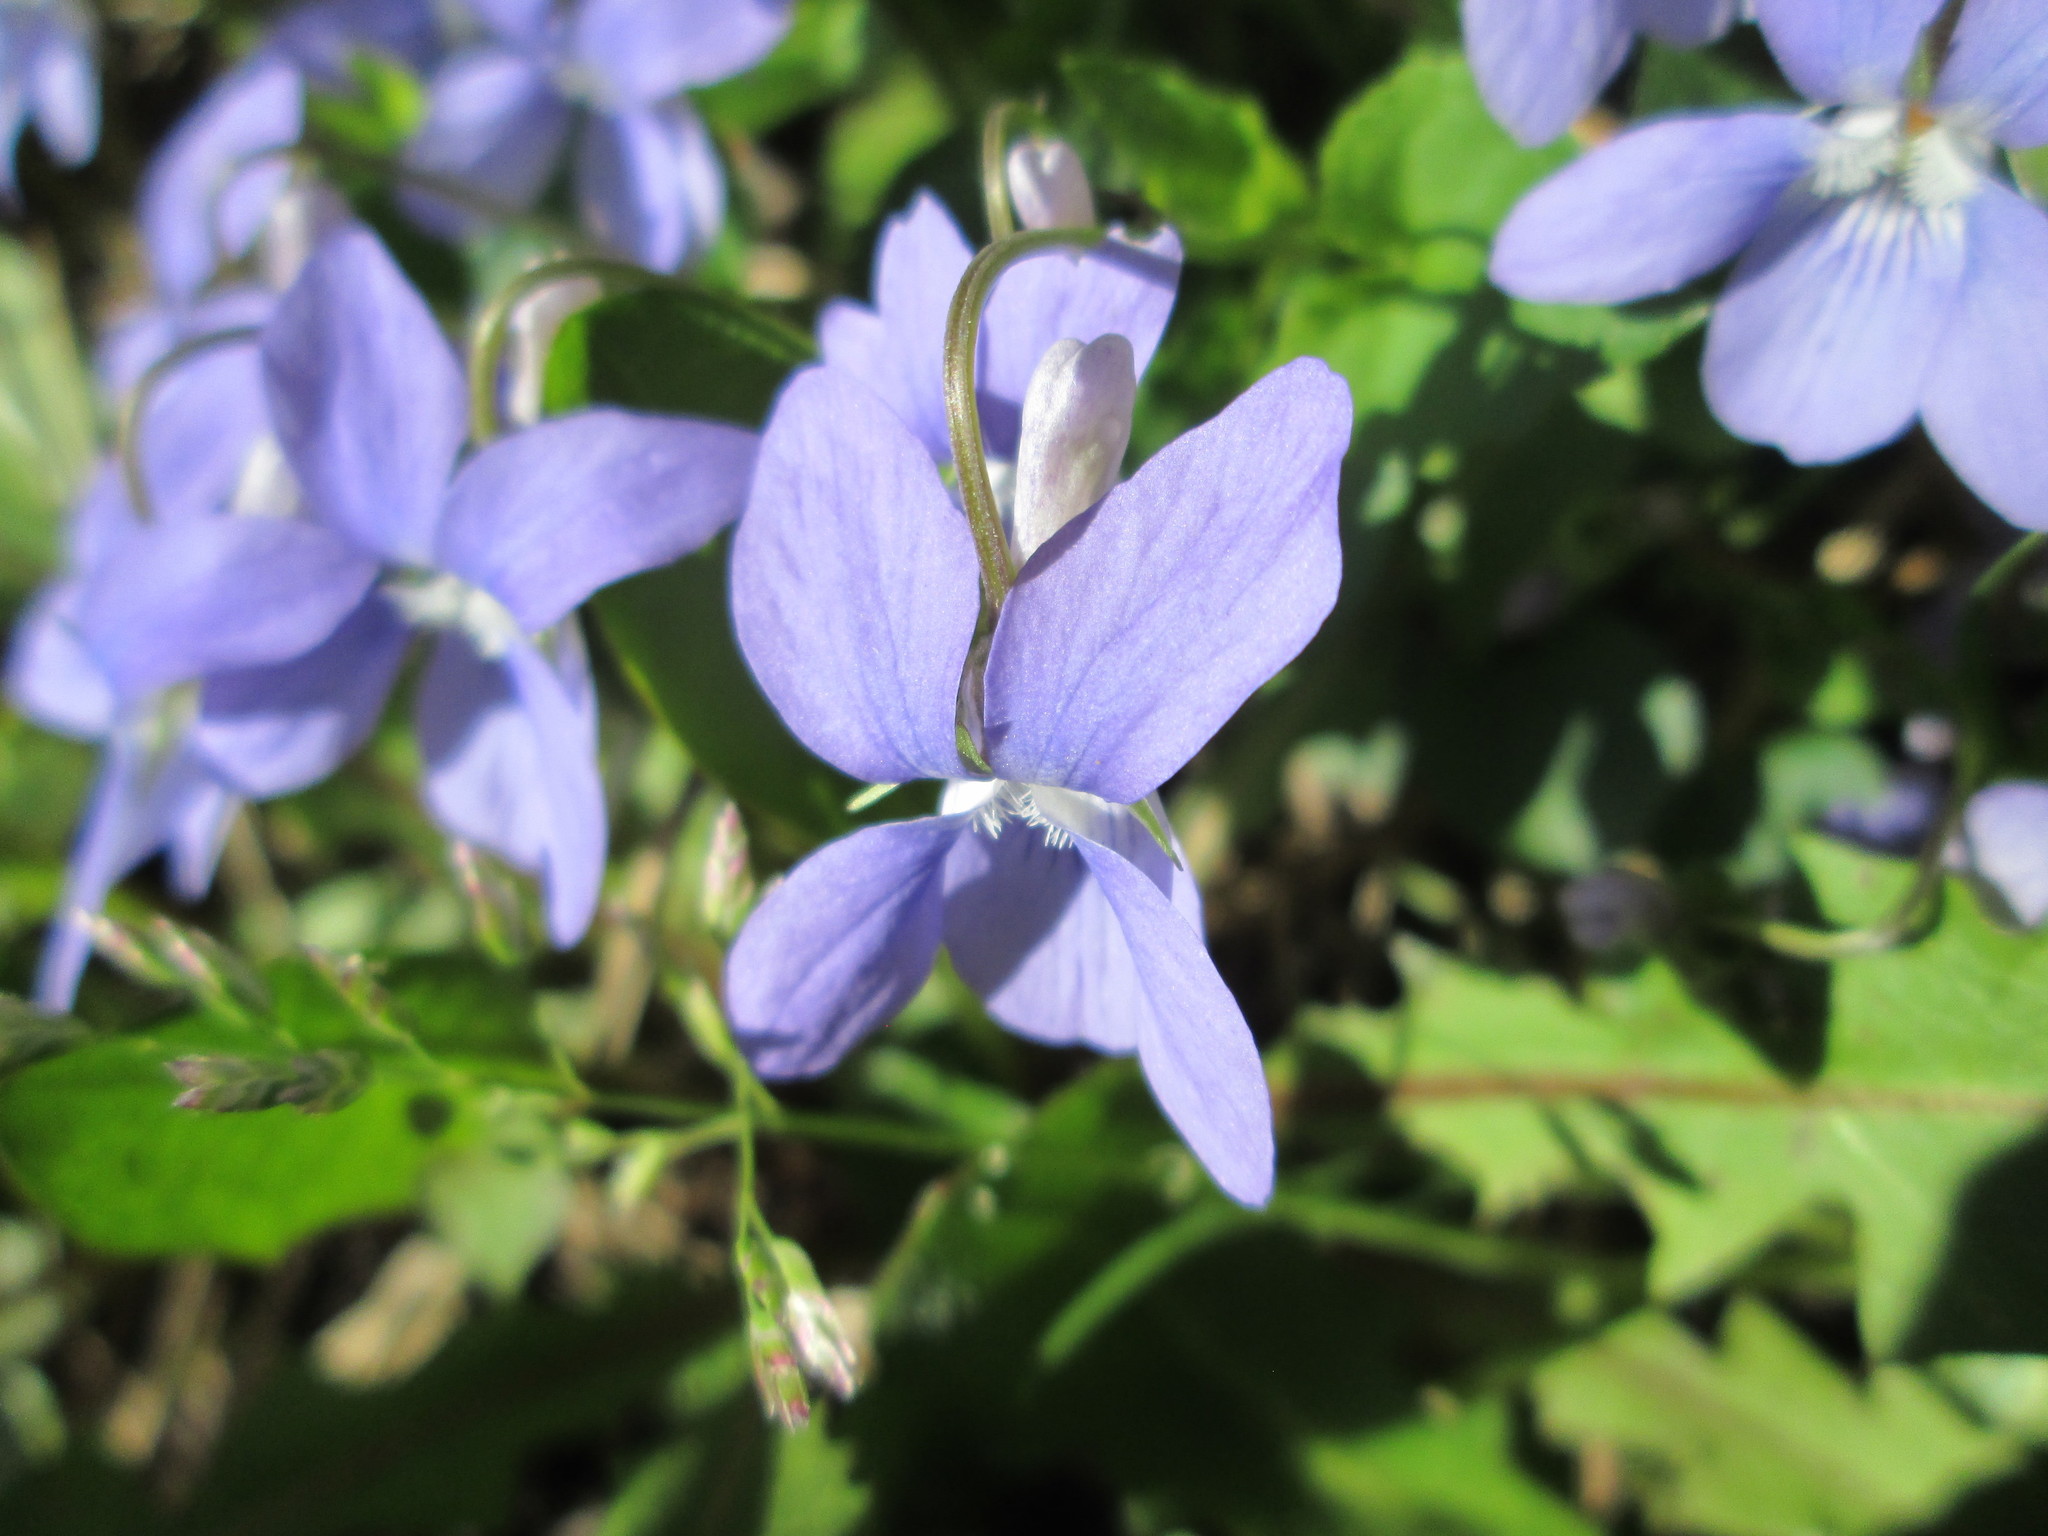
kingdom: Plantae
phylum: Tracheophyta
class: Magnoliopsida
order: Malpighiales
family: Violaceae
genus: Viola
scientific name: Viola riviniana
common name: Common dog-violet
